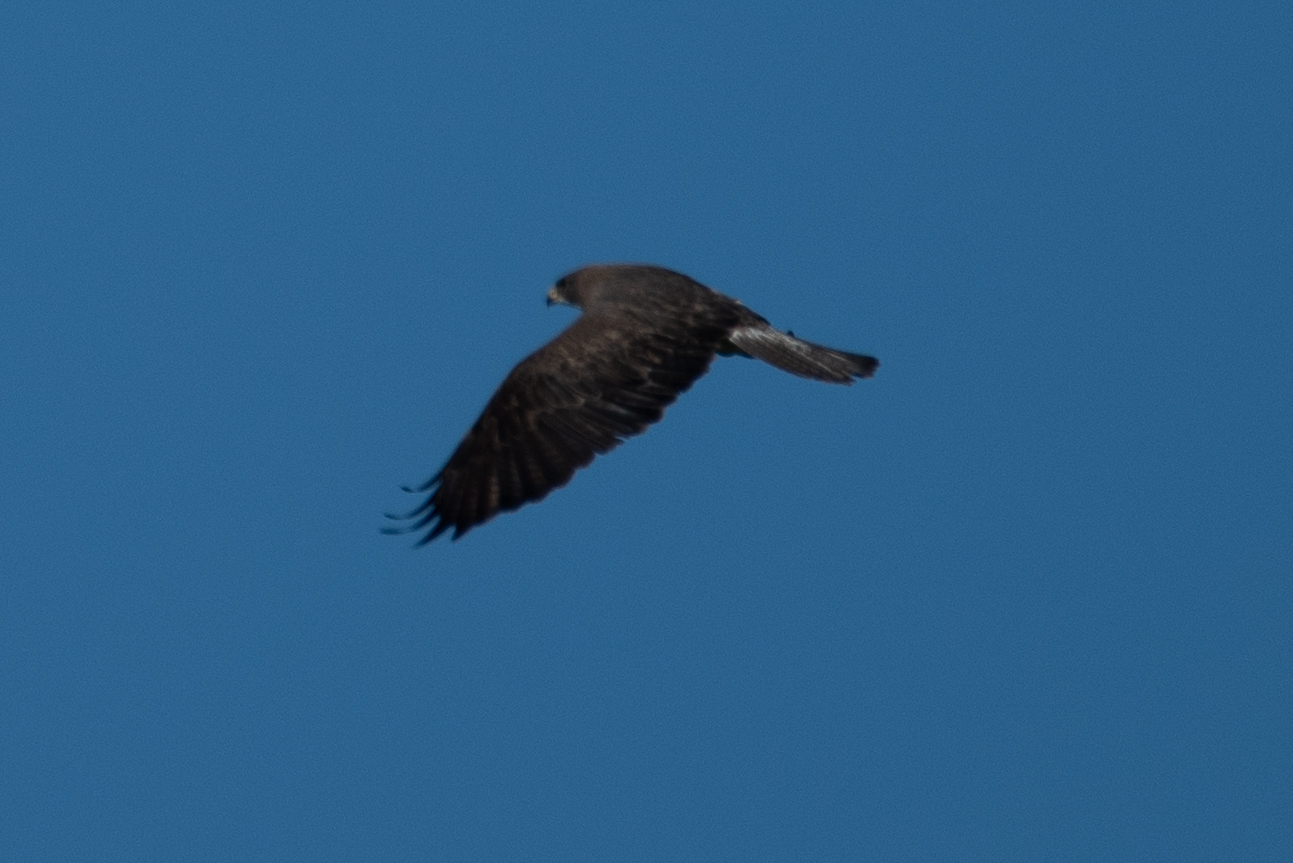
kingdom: Animalia
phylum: Chordata
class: Aves
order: Accipitriformes
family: Accipitridae
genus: Buteo
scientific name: Buteo swainsoni
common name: Swainson's hawk
